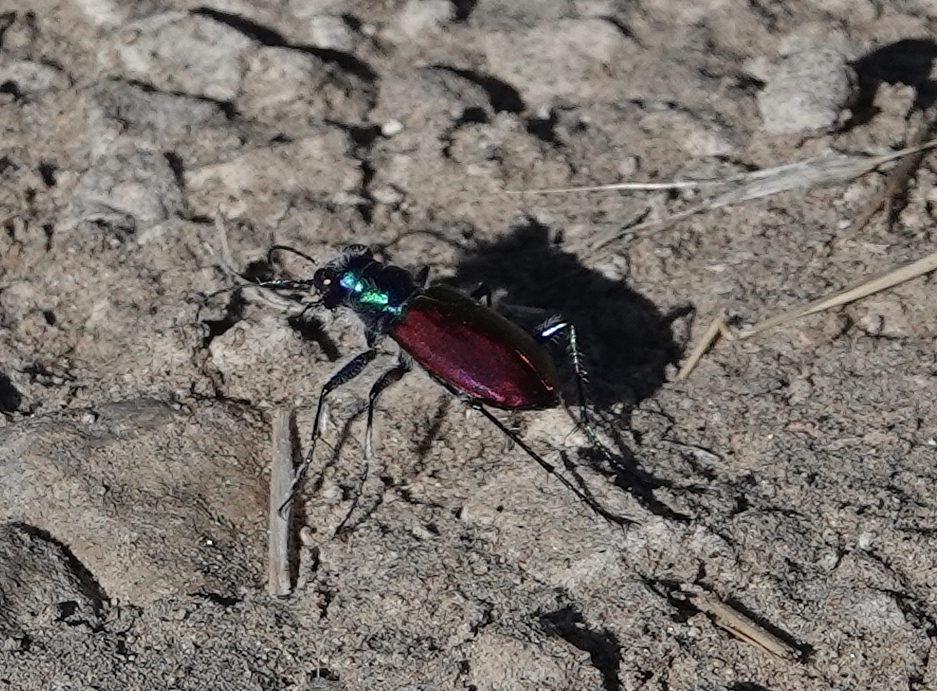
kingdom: Animalia
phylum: Arthropoda
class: Insecta
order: Coleoptera
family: Carabidae
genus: Cicindela
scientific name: Cicindela scutellaris
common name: Festive tiger beetle
